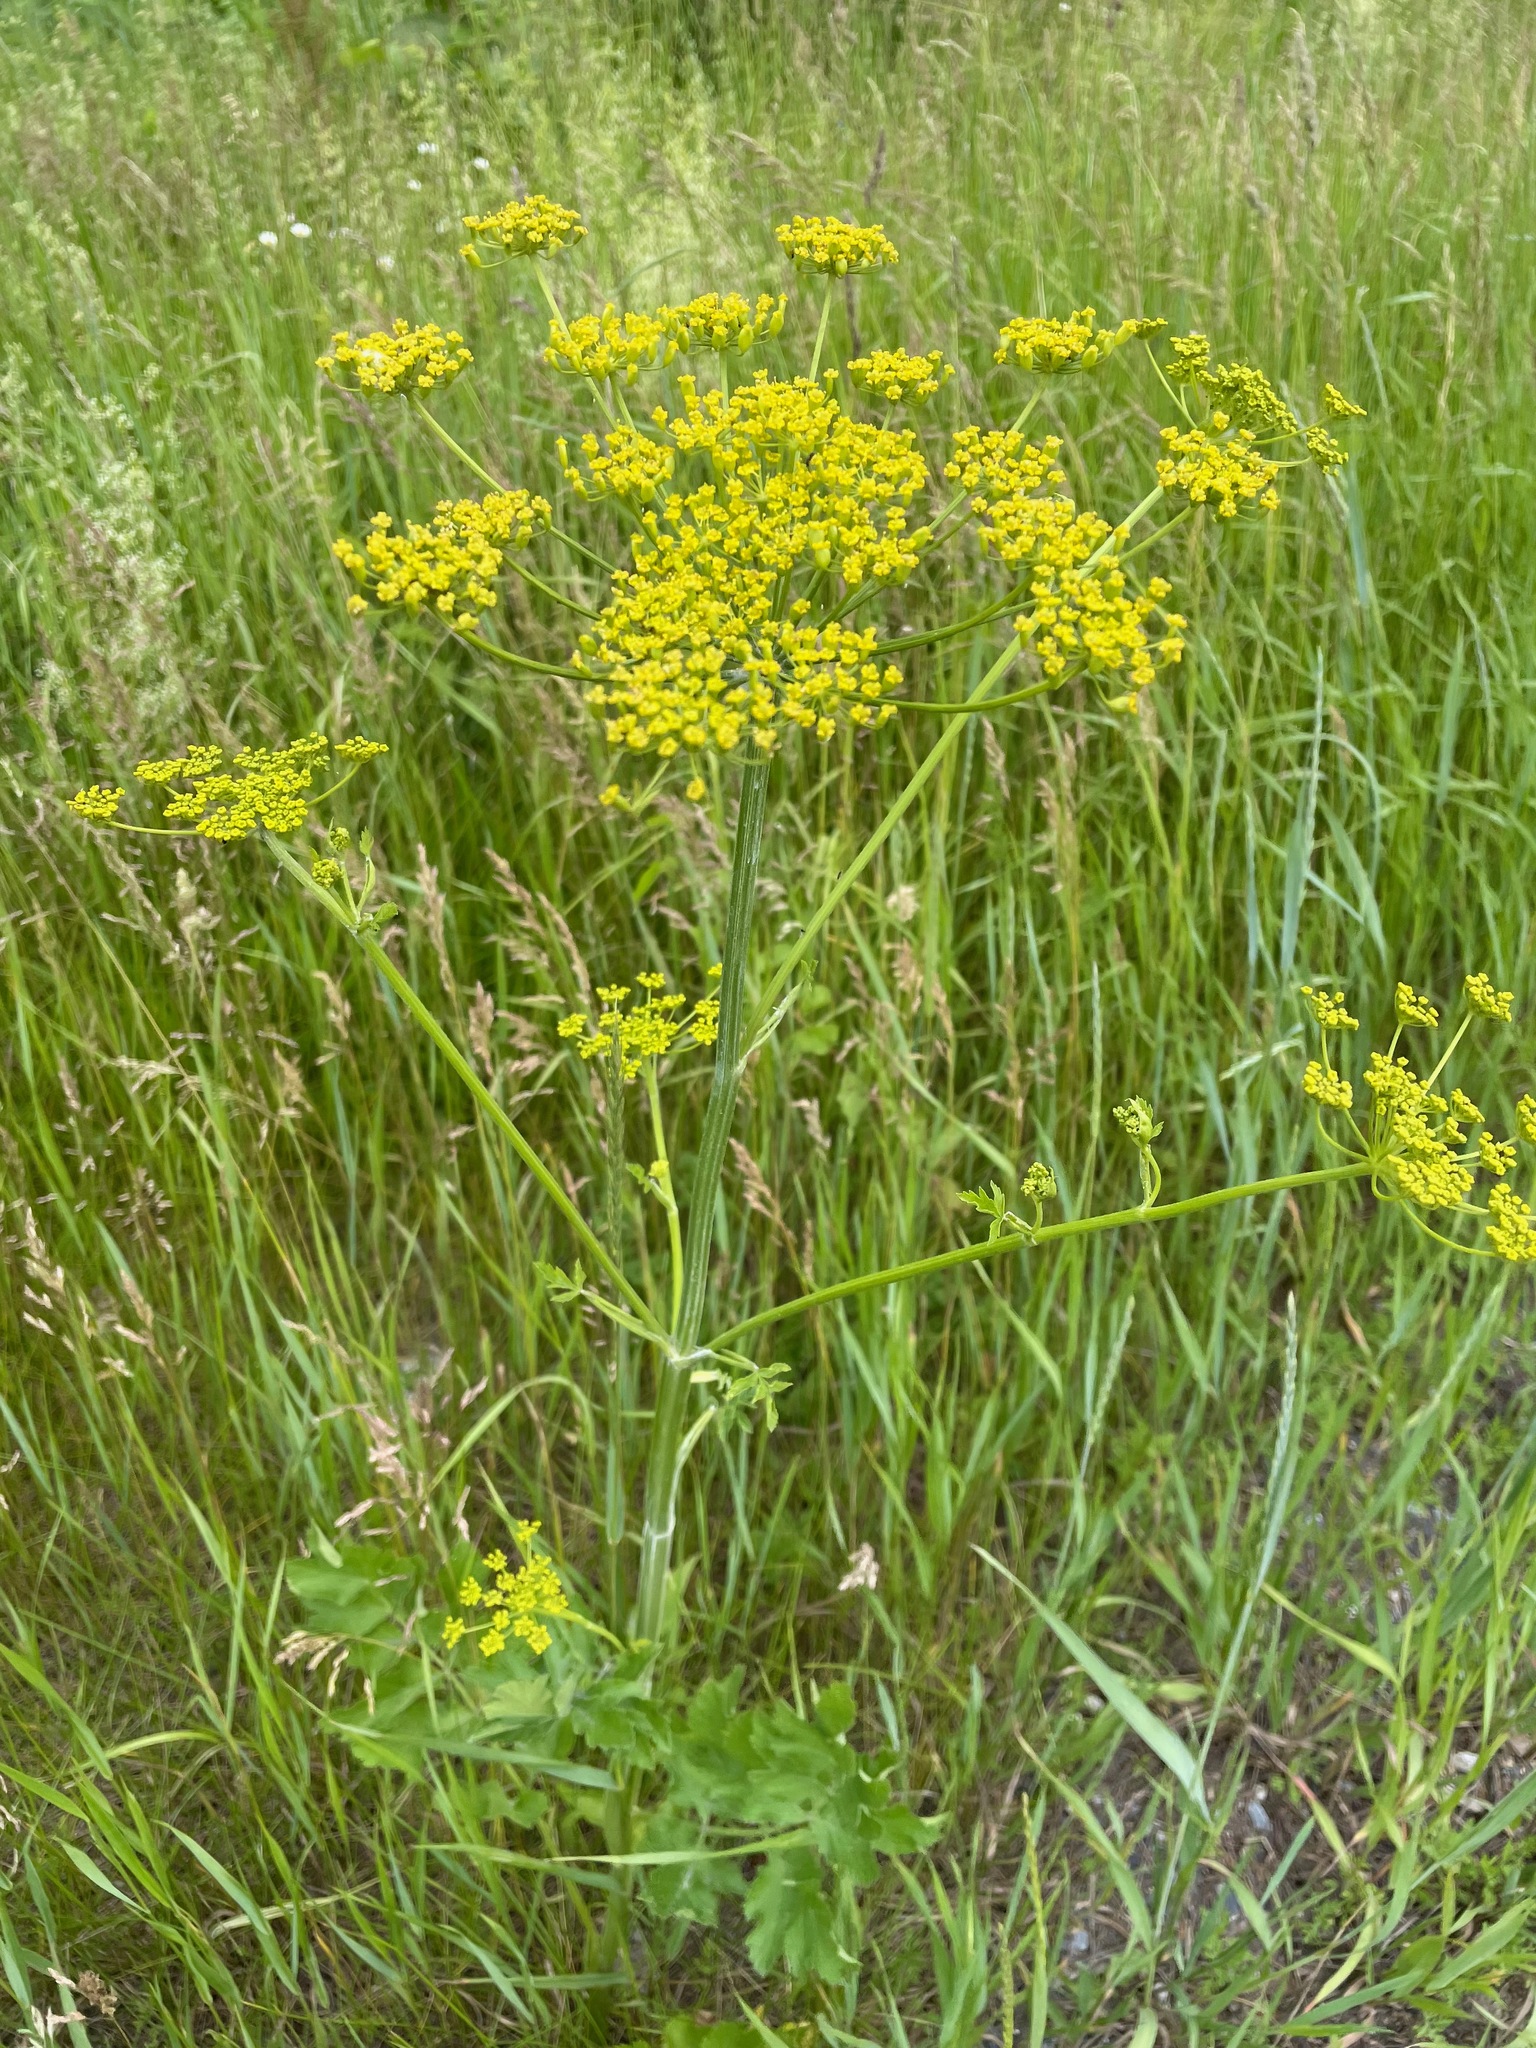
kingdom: Plantae
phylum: Tracheophyta
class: Magnoliopsida
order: Apiales
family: Apiaceae
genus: Pastinaca
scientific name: Pastinaca sativa
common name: Wild parsnip
